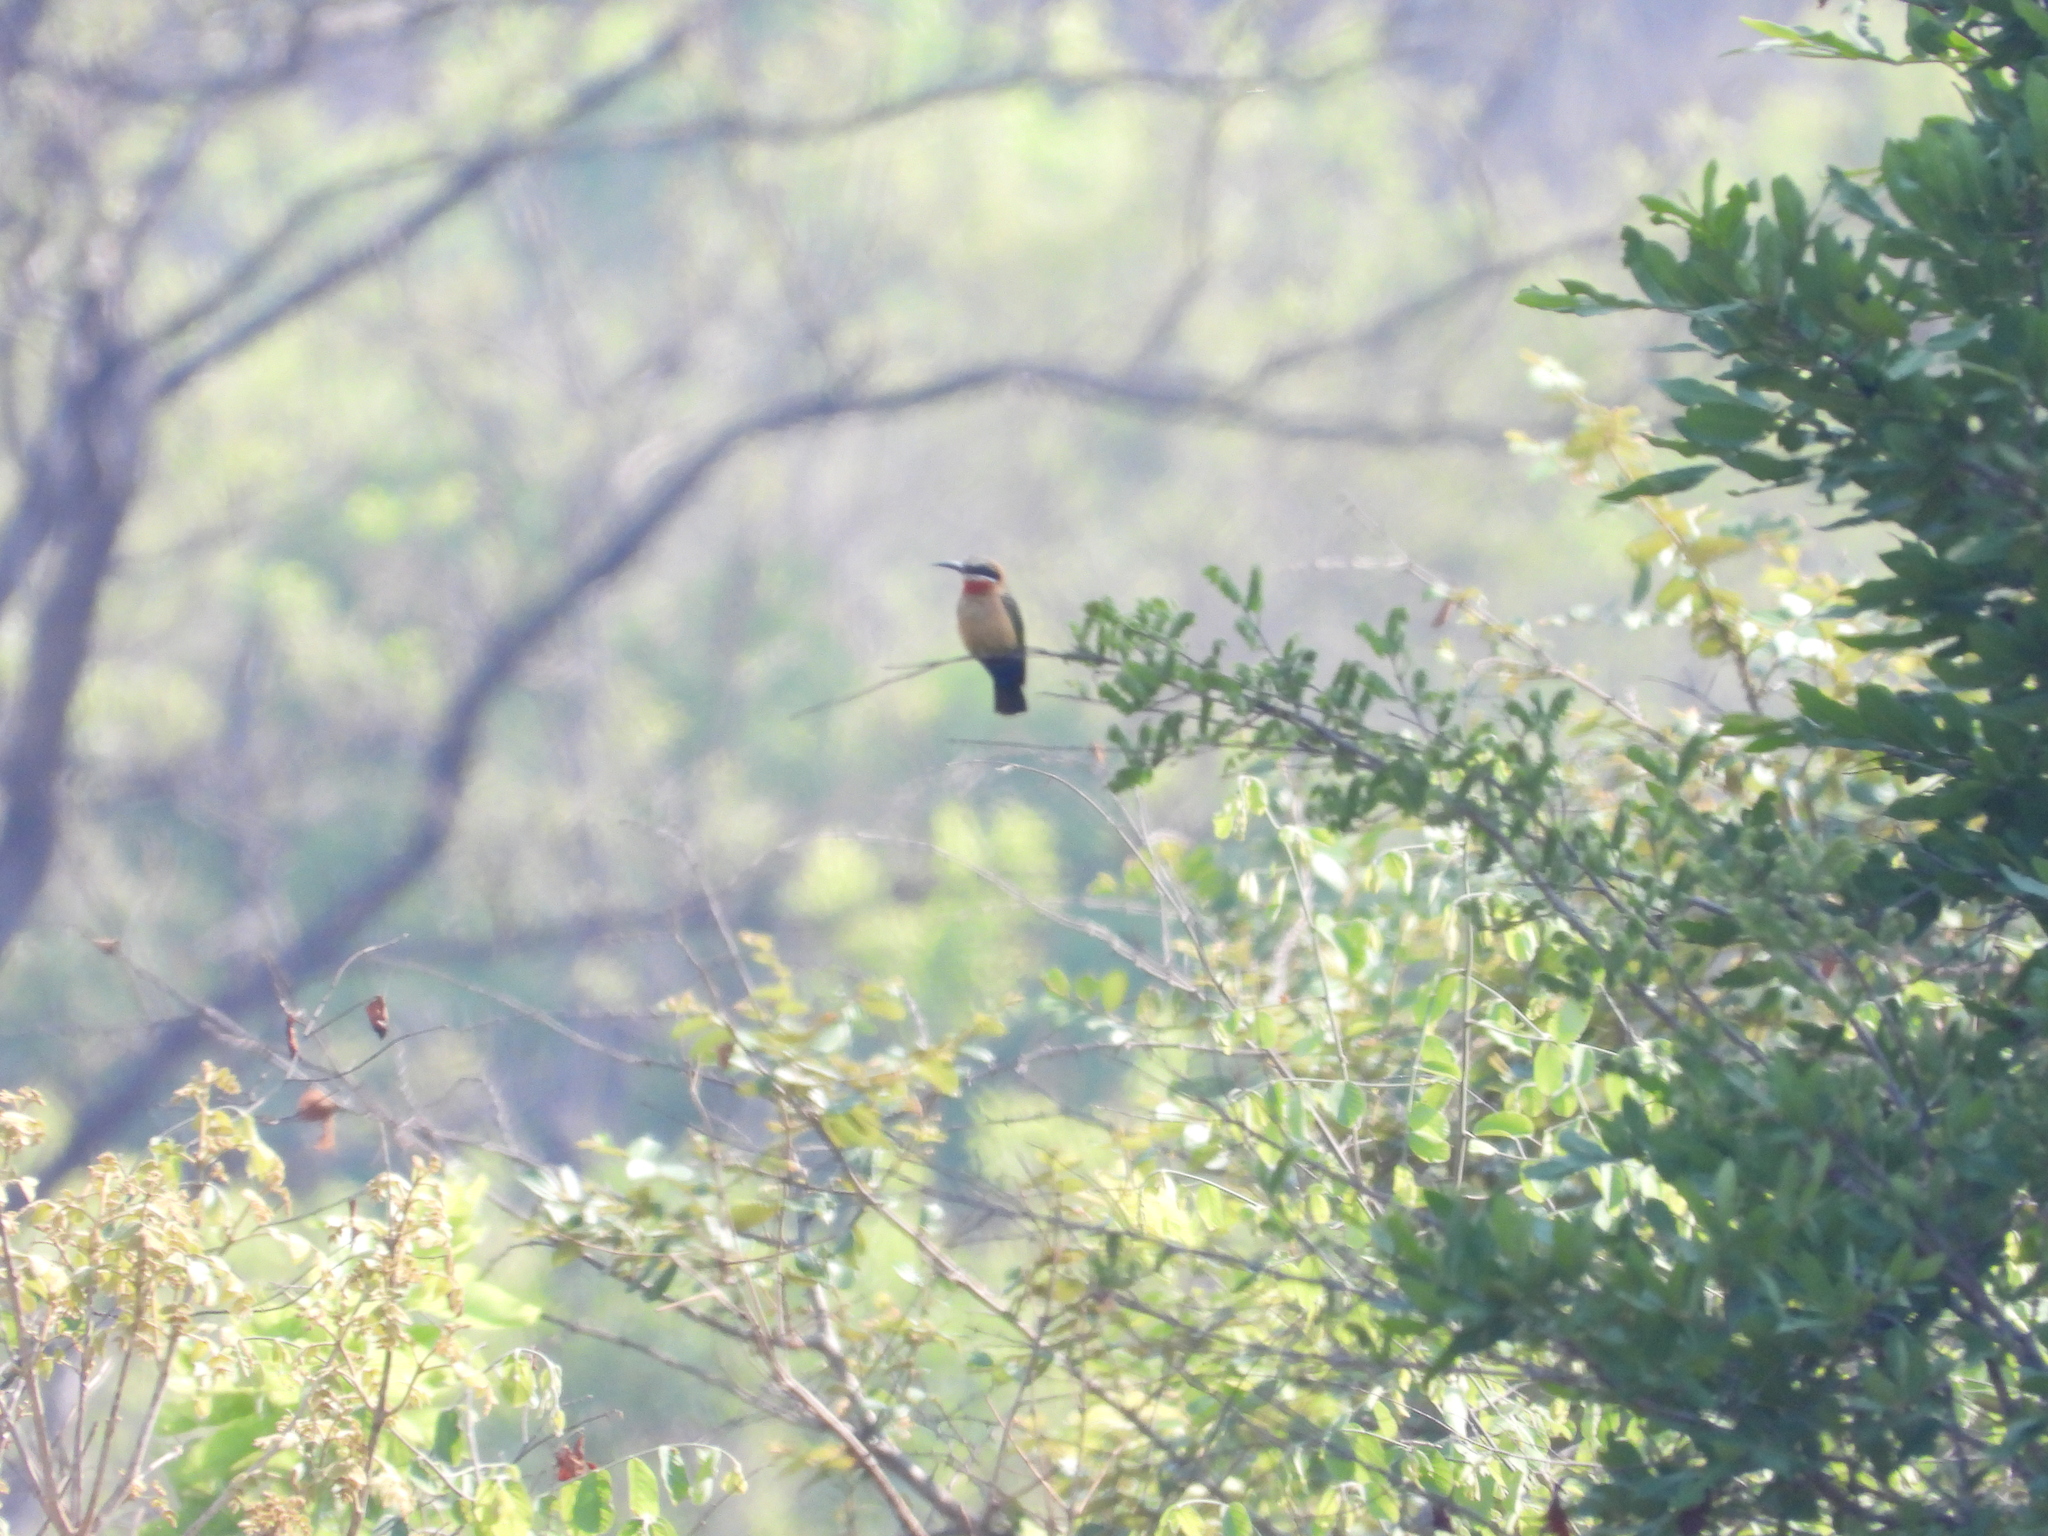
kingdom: Animalia
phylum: Chordata
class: Aves
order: Coraciiformes
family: Meropidae
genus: Merops
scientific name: Merops bullockoides
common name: White-fronted bee-eater
